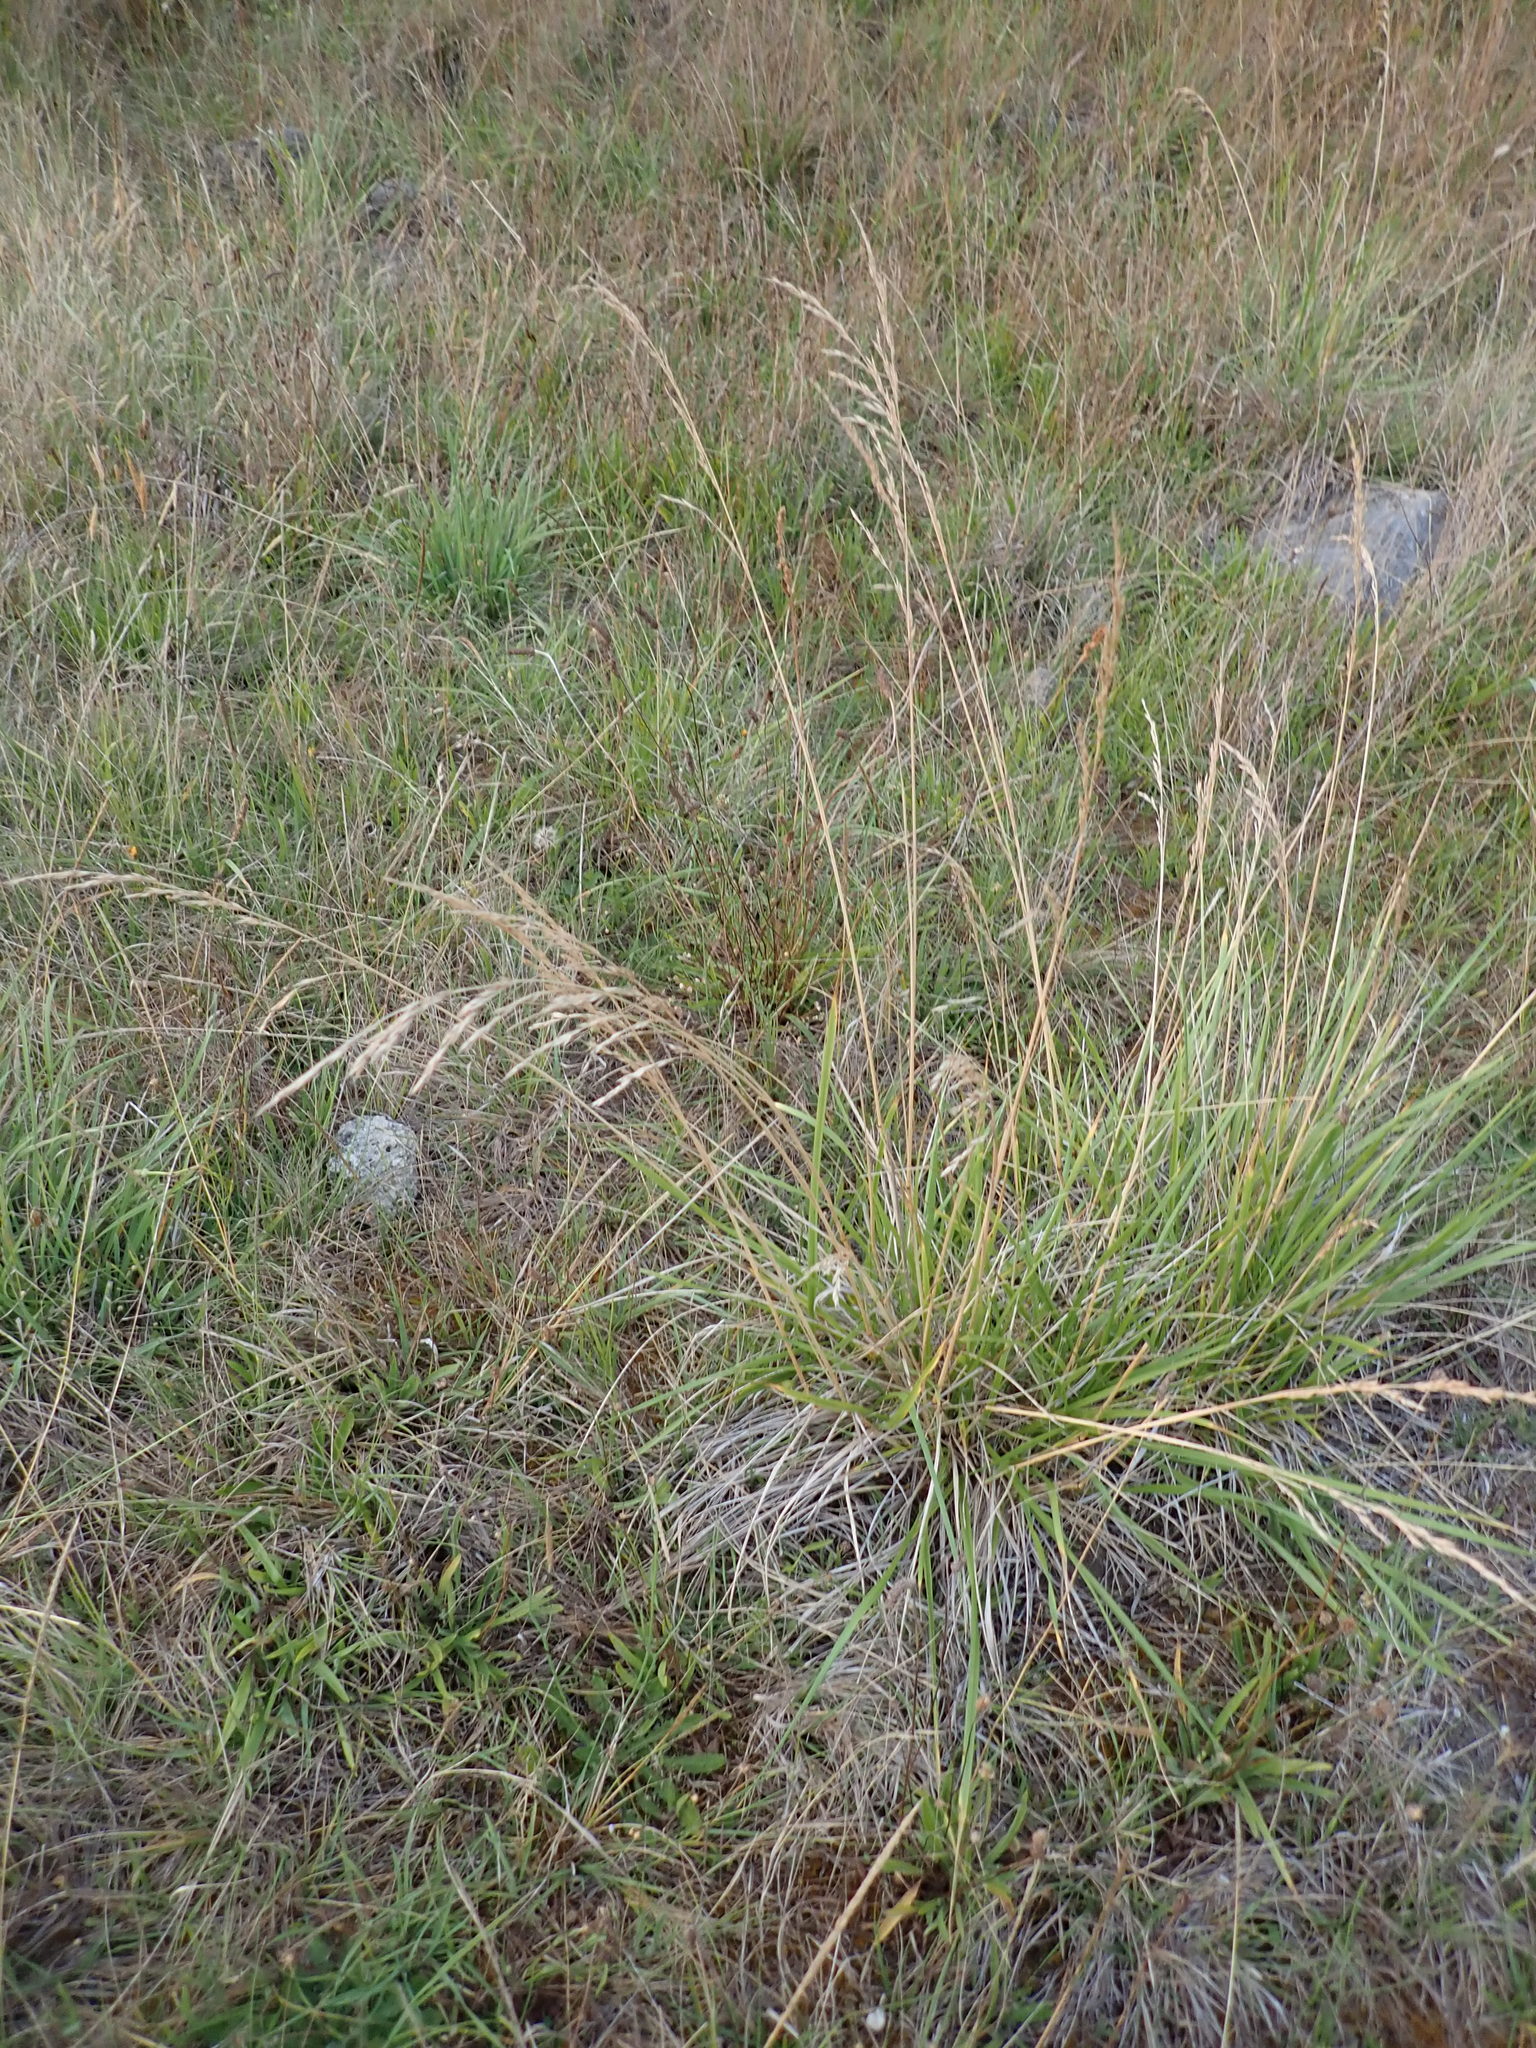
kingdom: Plantae
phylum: Tracheophyta
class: Liliopsida
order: Poales
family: Poaceae
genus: Lolium
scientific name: Lolium arundinaceum
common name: Reed fescue
